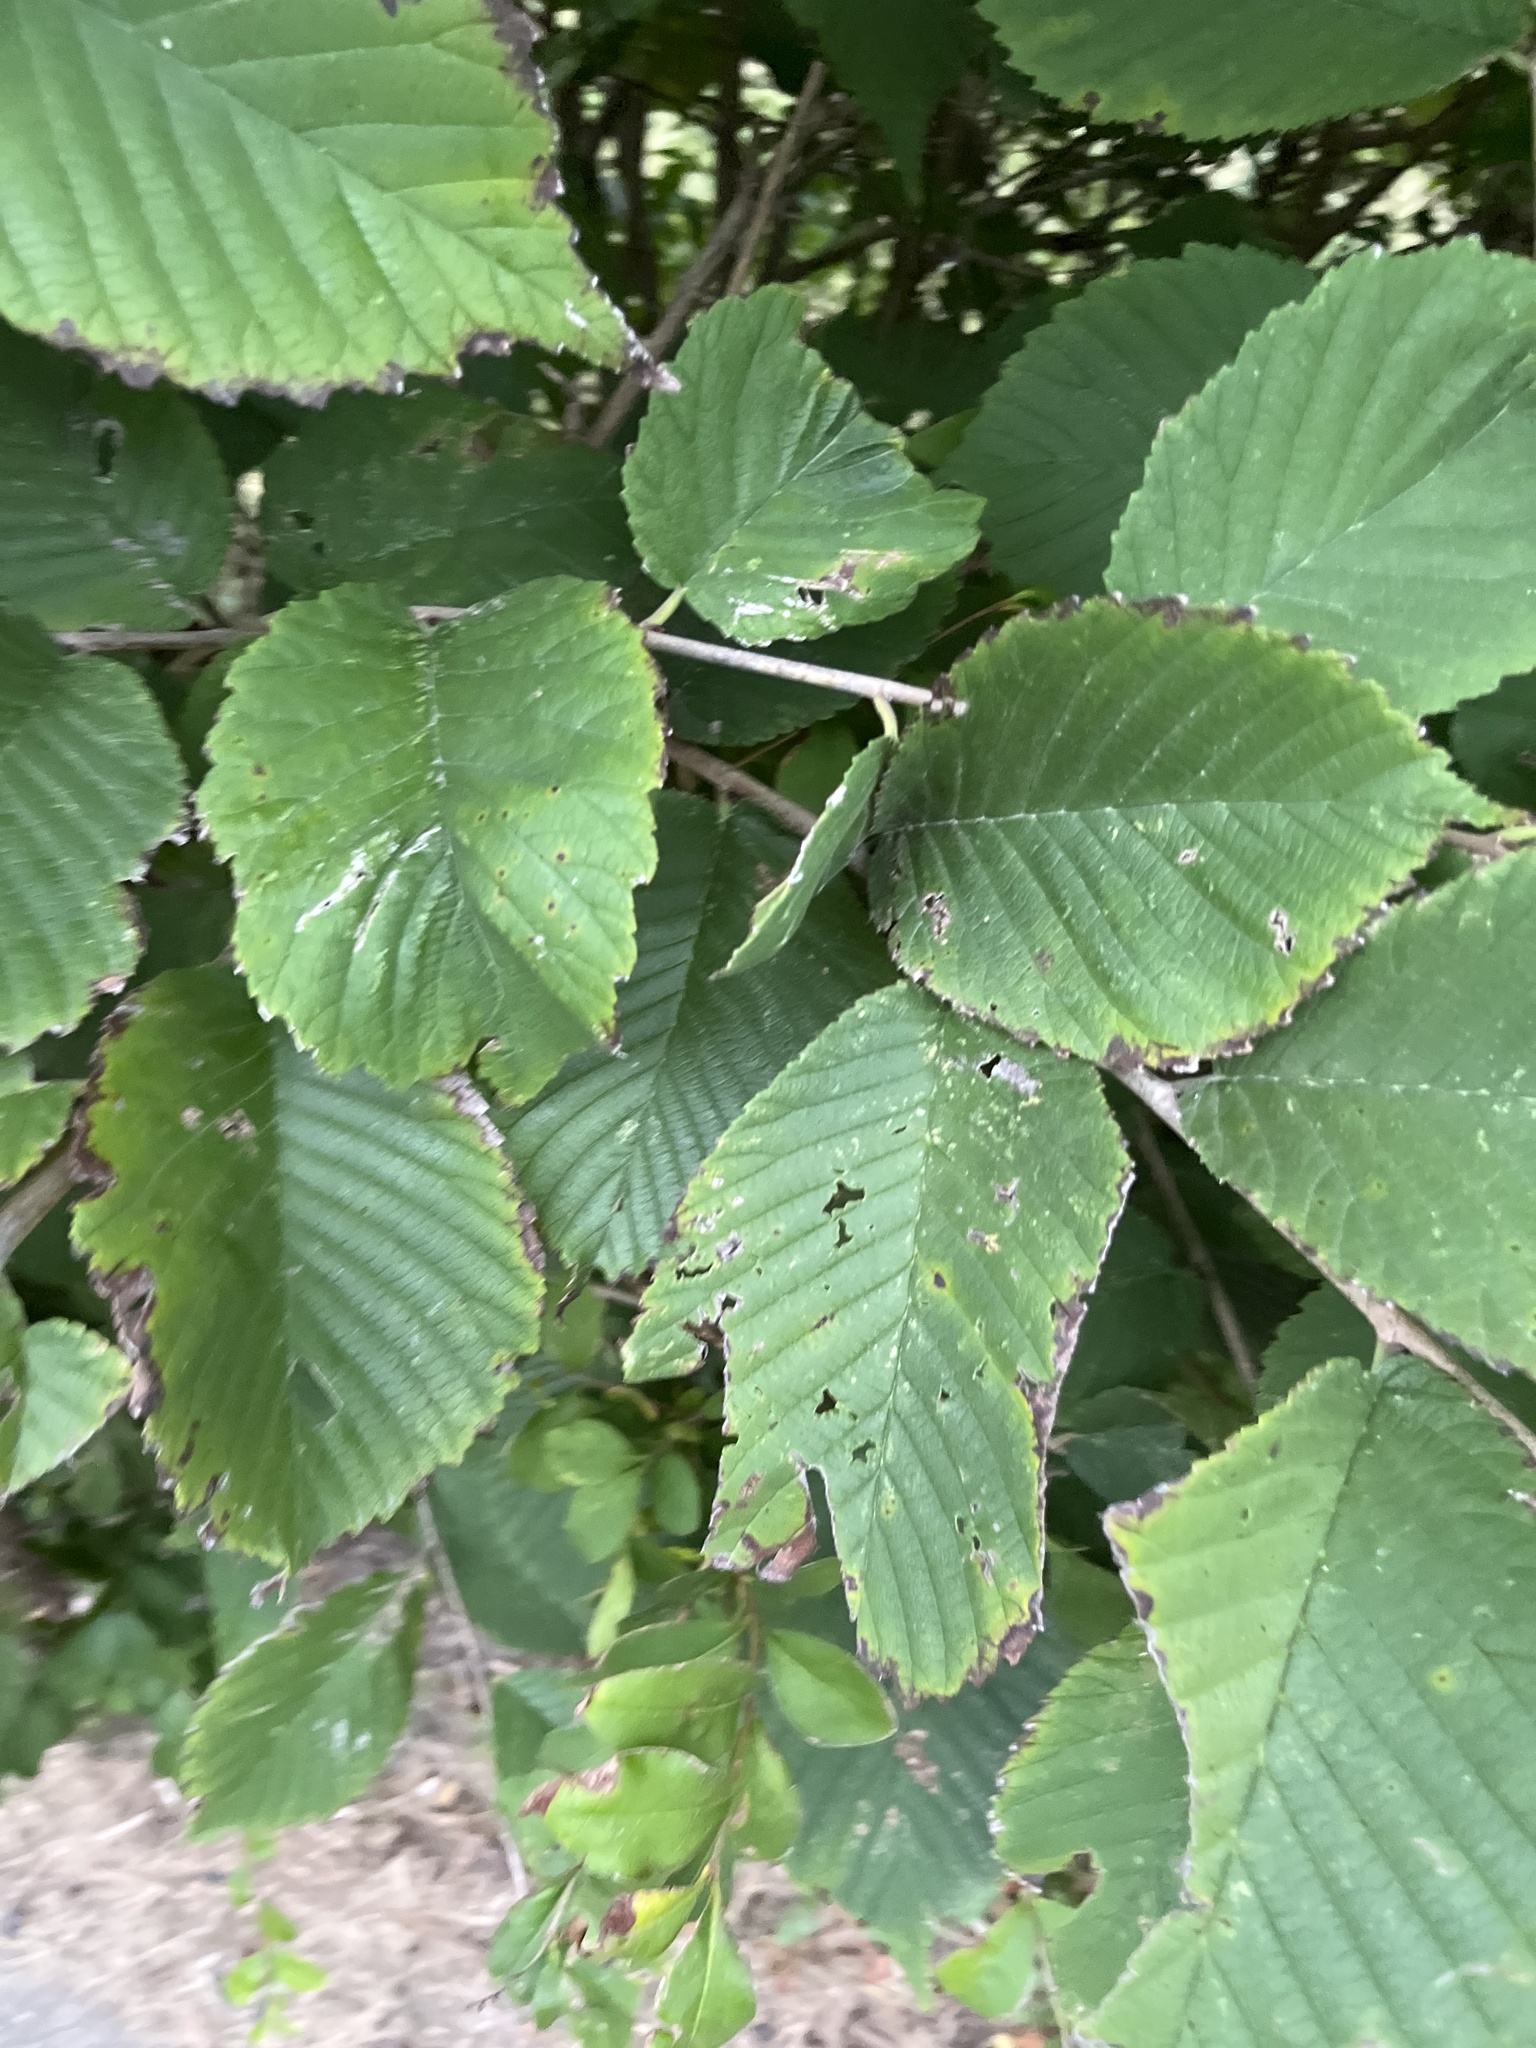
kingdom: Plantae
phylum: Tracheophyta
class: Magnoliopsida
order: Rosales
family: Ulmaceae
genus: Ulmus
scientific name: Ulmus rubra
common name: Slippery elm
